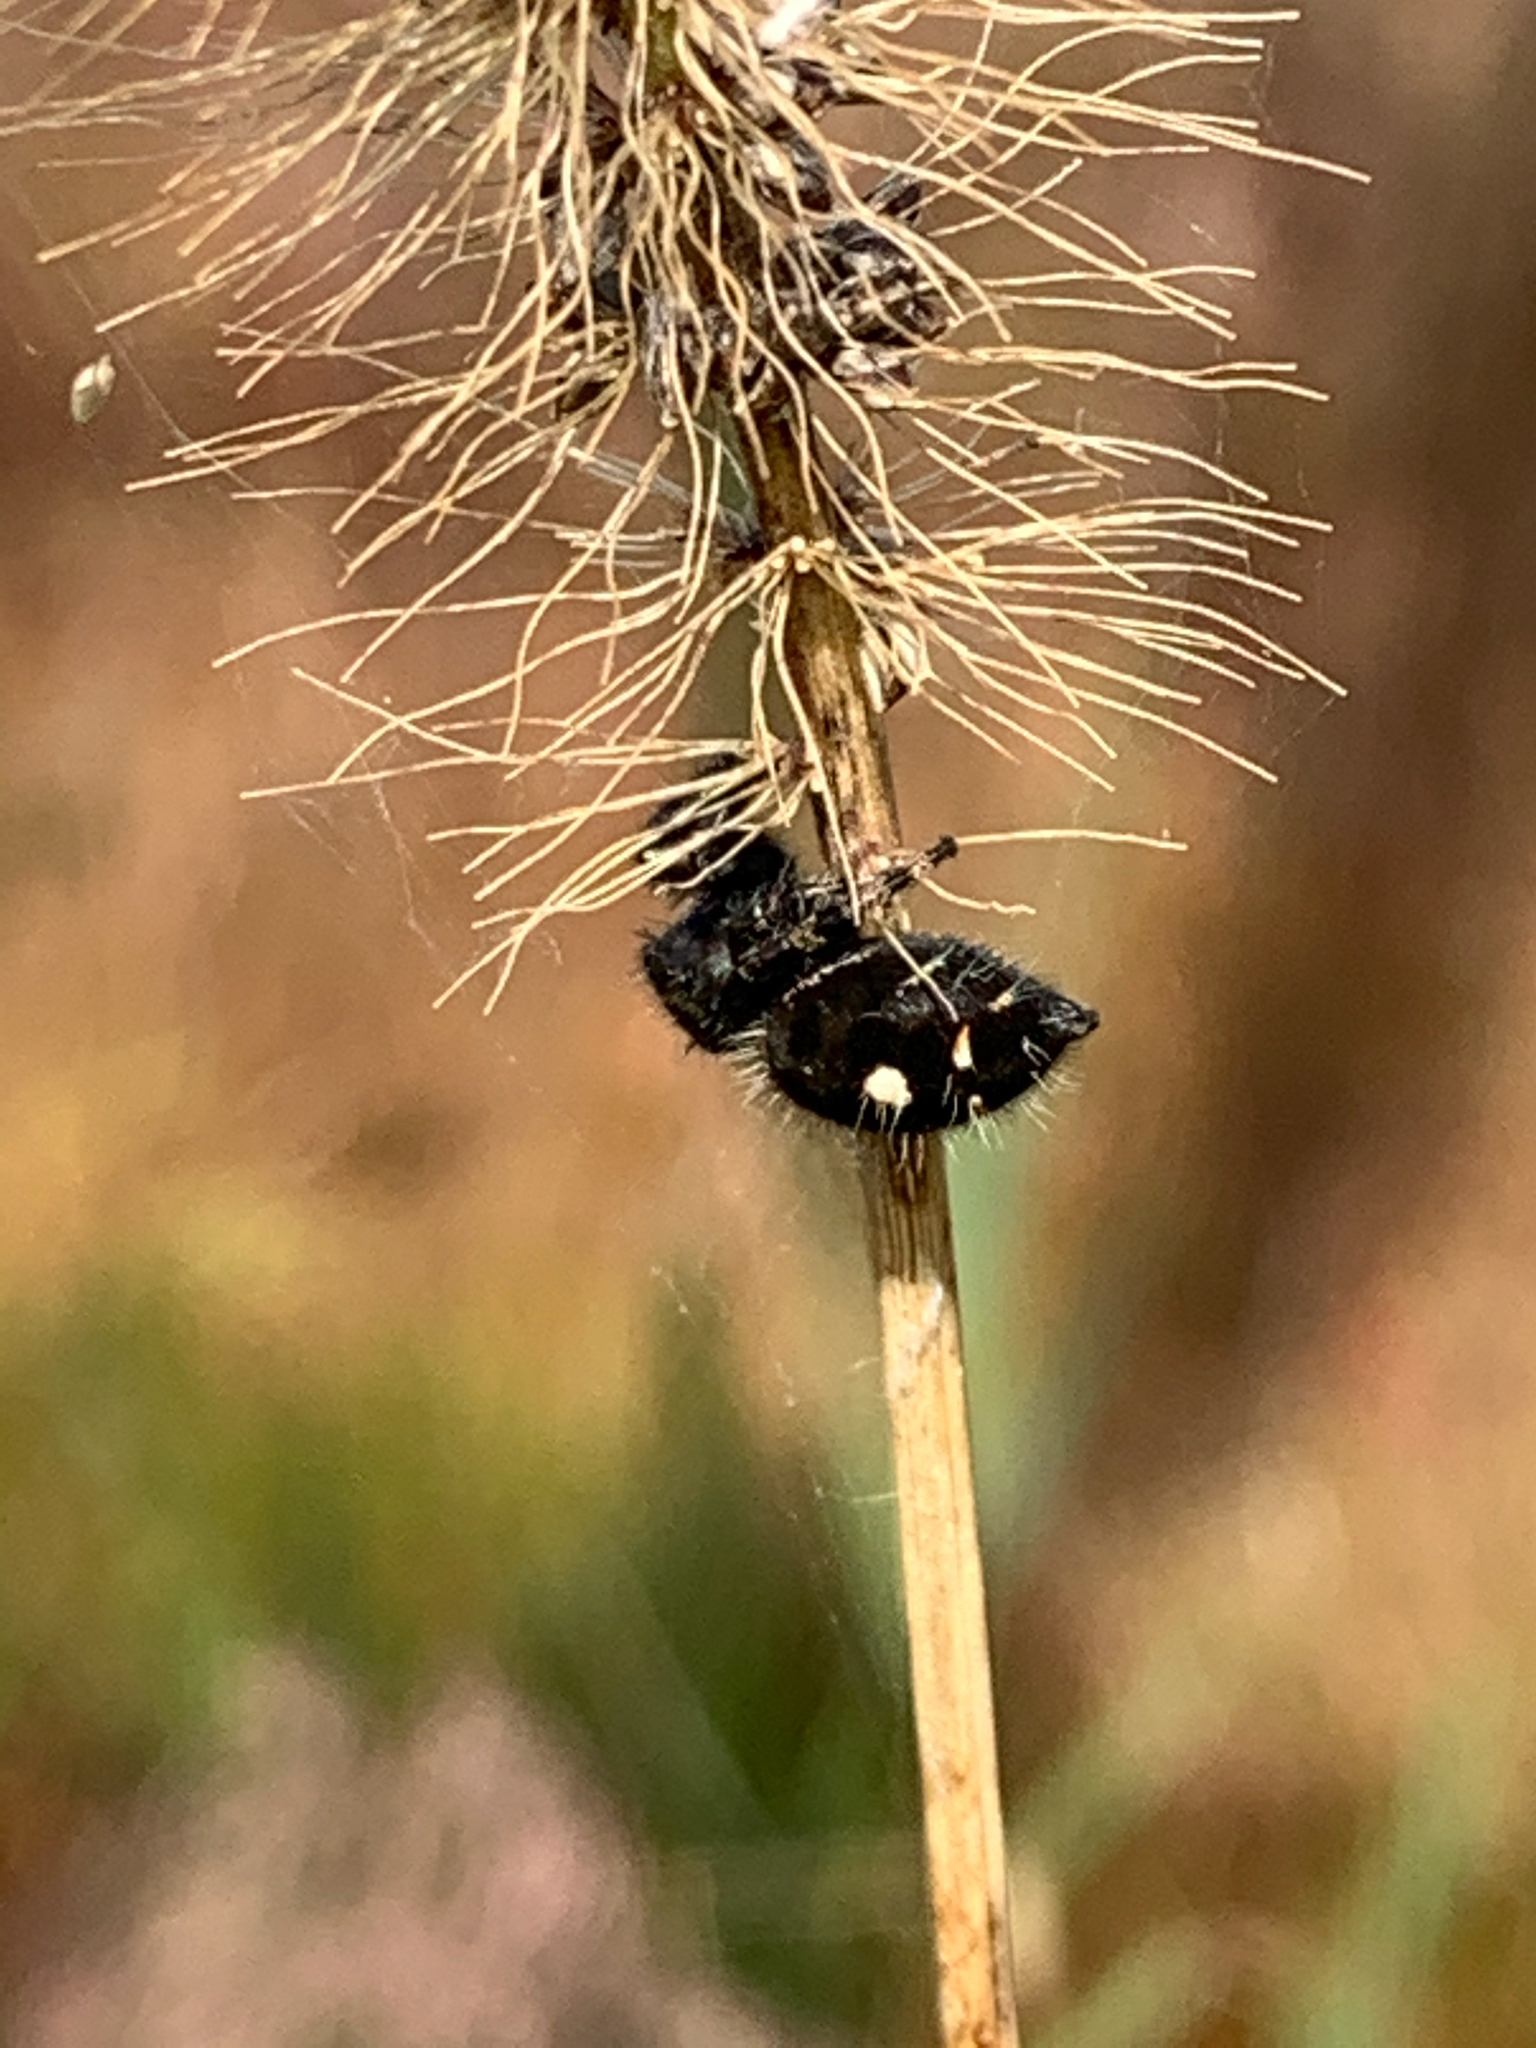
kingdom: Animalia
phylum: Arthropoda
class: Arachnida
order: Araneae
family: Salticidae
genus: Phidippus
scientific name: Phidippus audax
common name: Bold jumper
